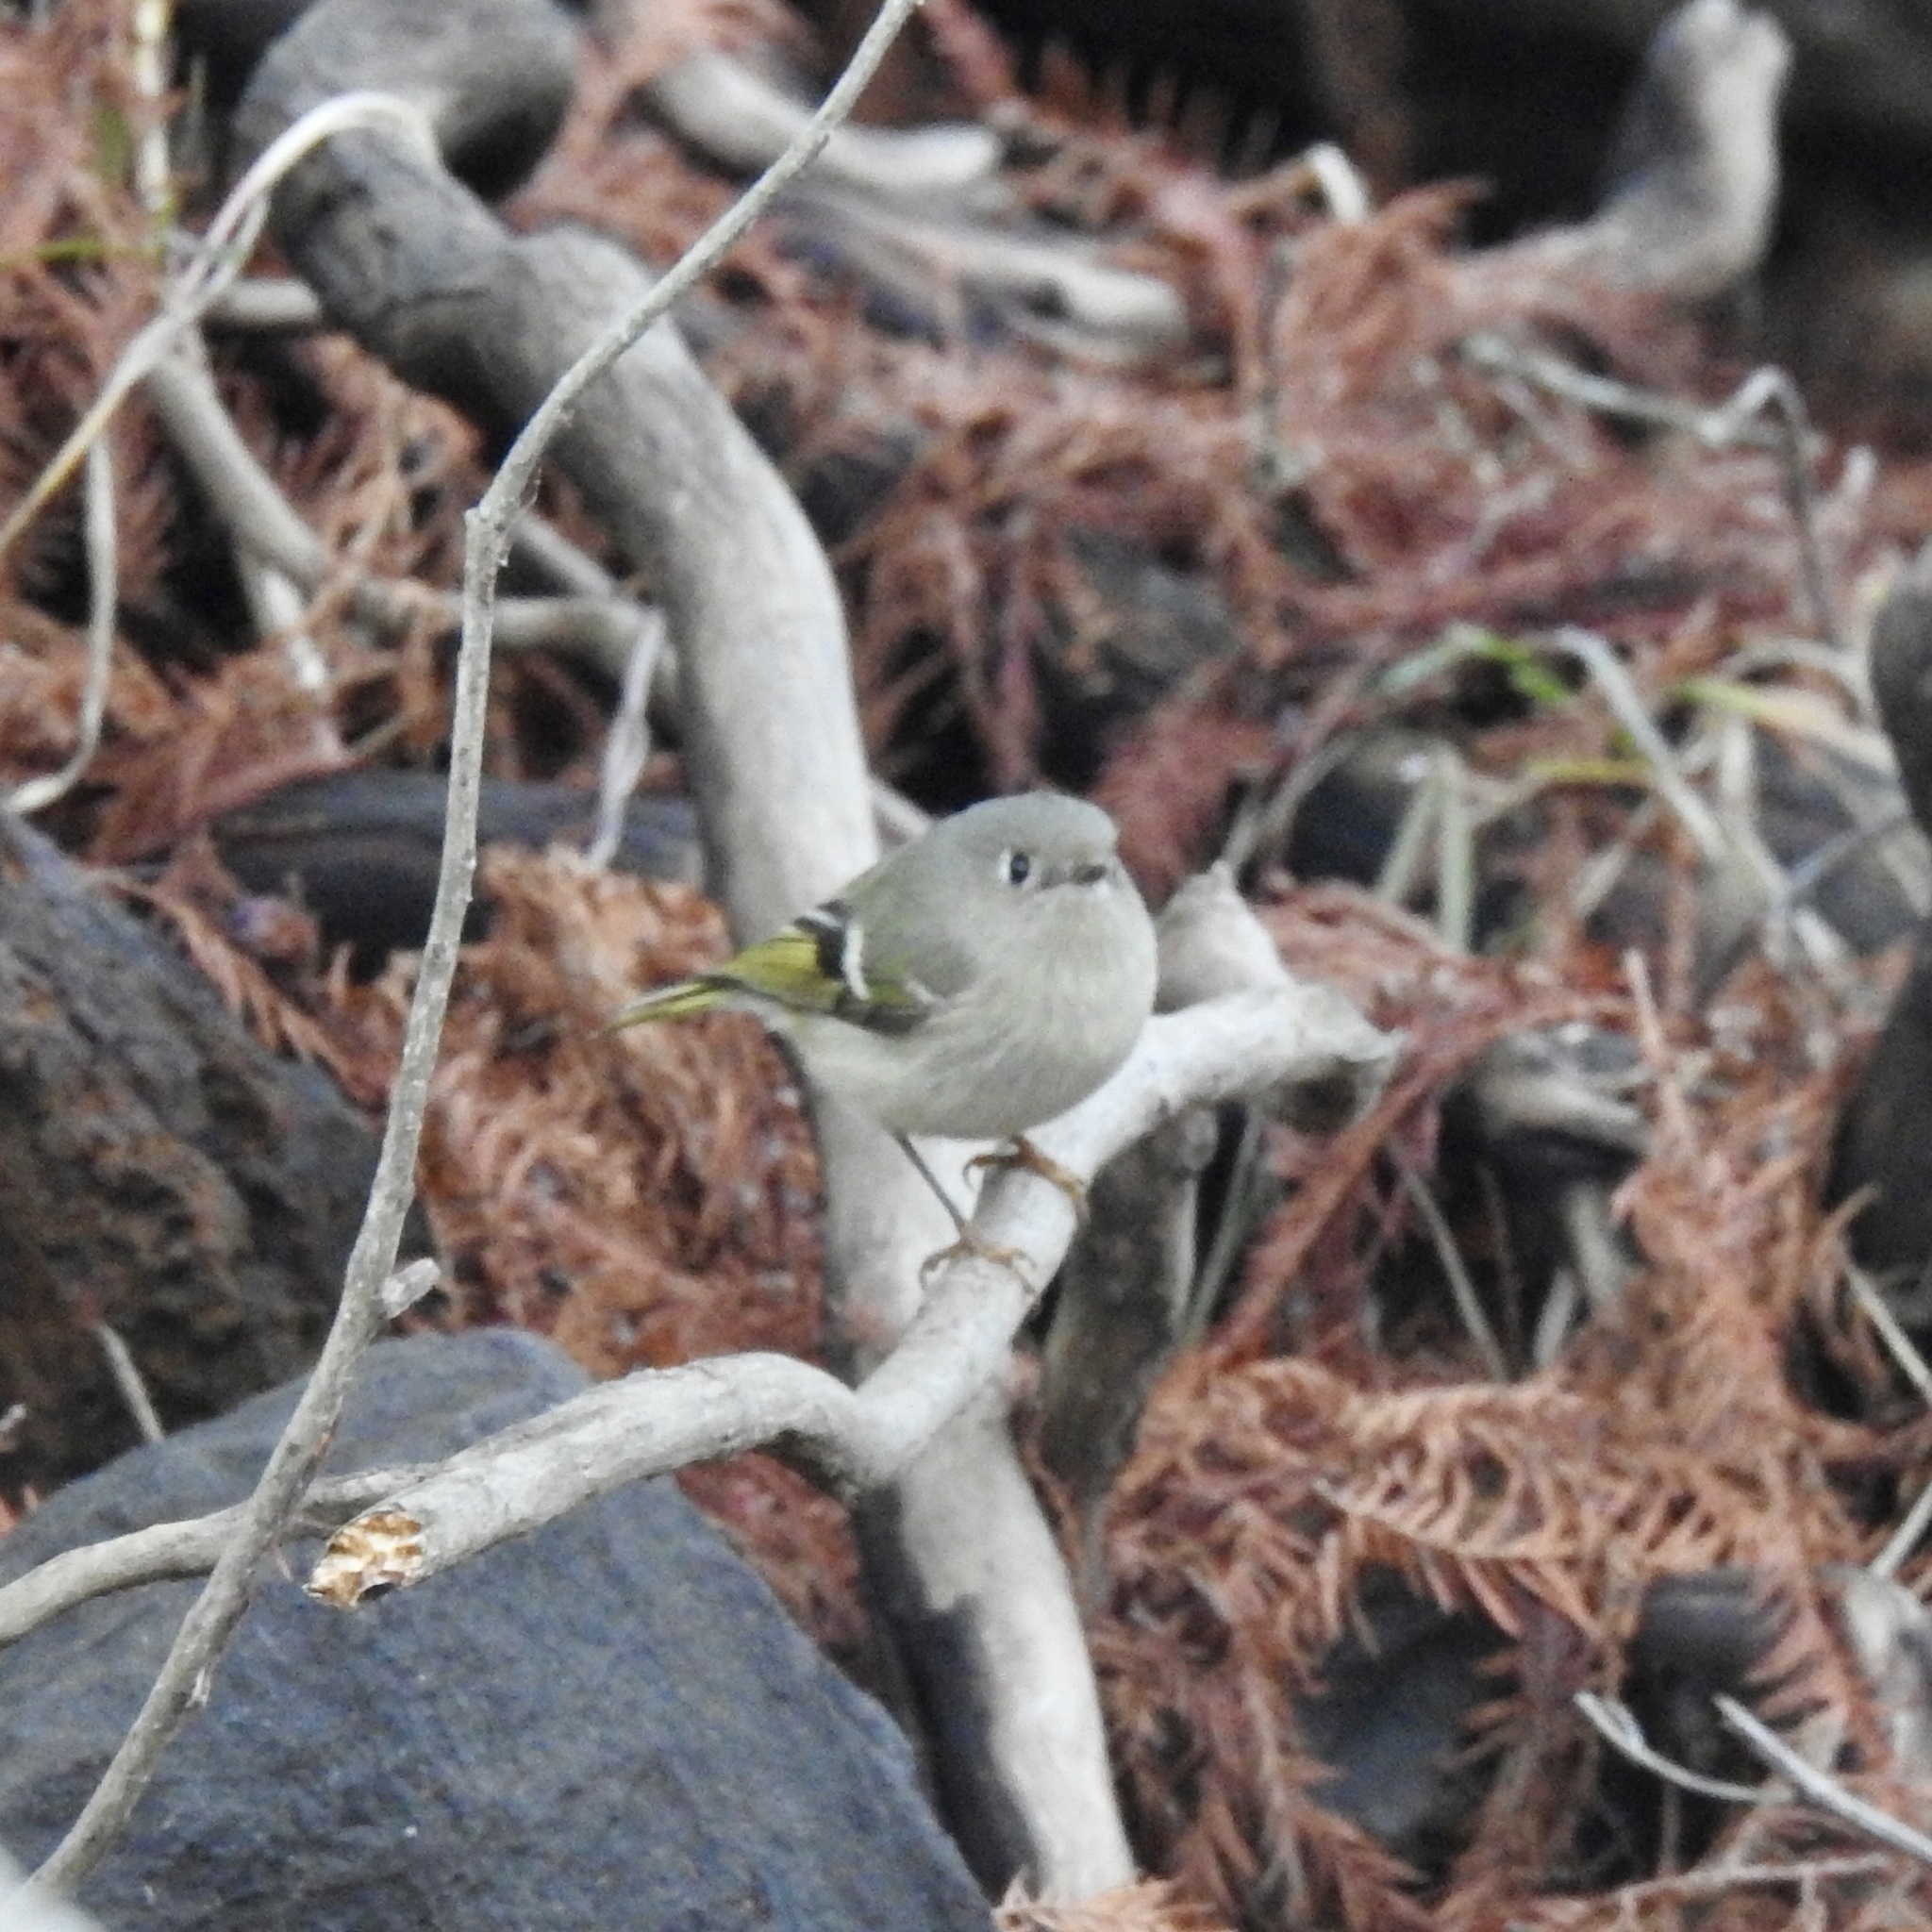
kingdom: Animalia
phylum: Chordata
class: Aves
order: Passeriformes
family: Regulidae
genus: Regulus
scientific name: Regulus calendula
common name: Ruby-crowned kinglet
